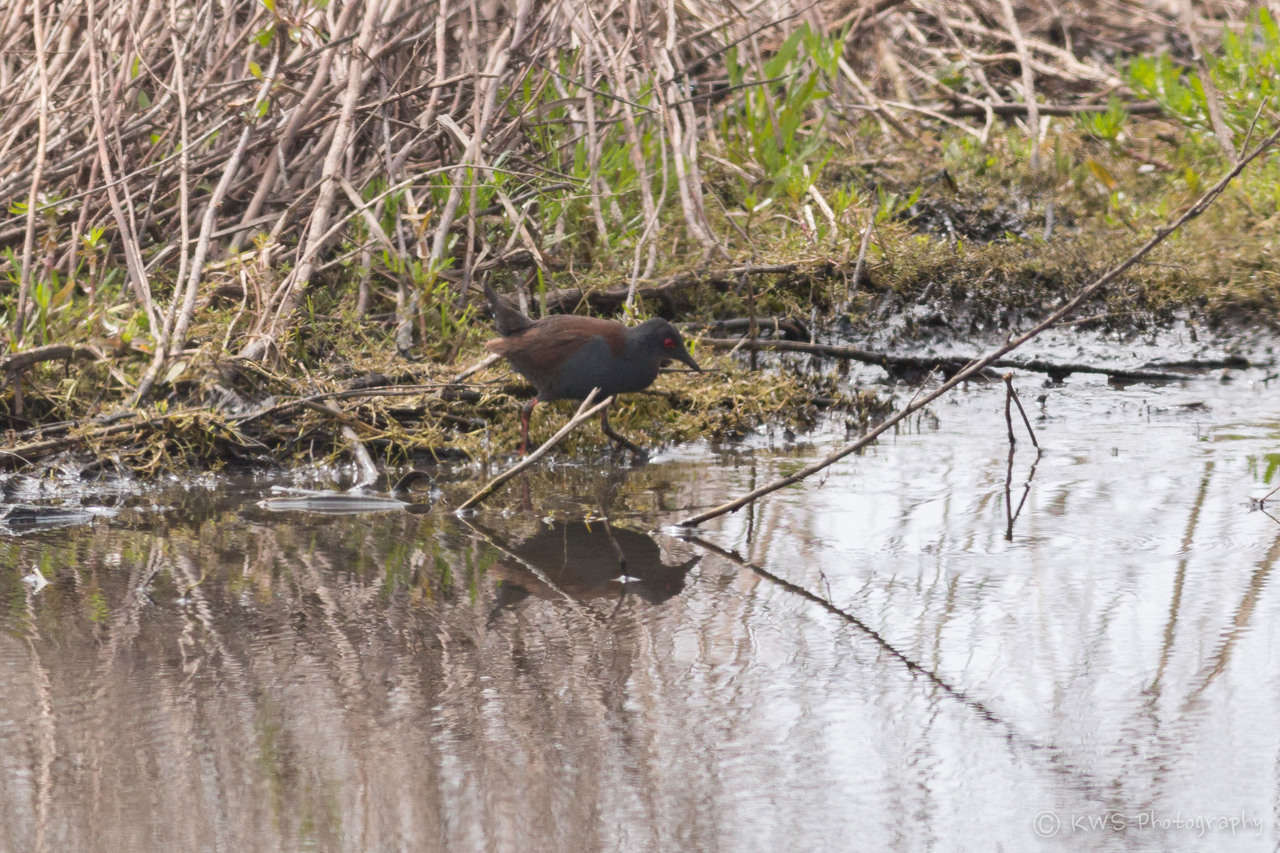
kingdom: Animalia
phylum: Chordata
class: Aves
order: Gruiformes
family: Rallidae
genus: Porzana
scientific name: Porzana tabuensis
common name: Spotless crake
